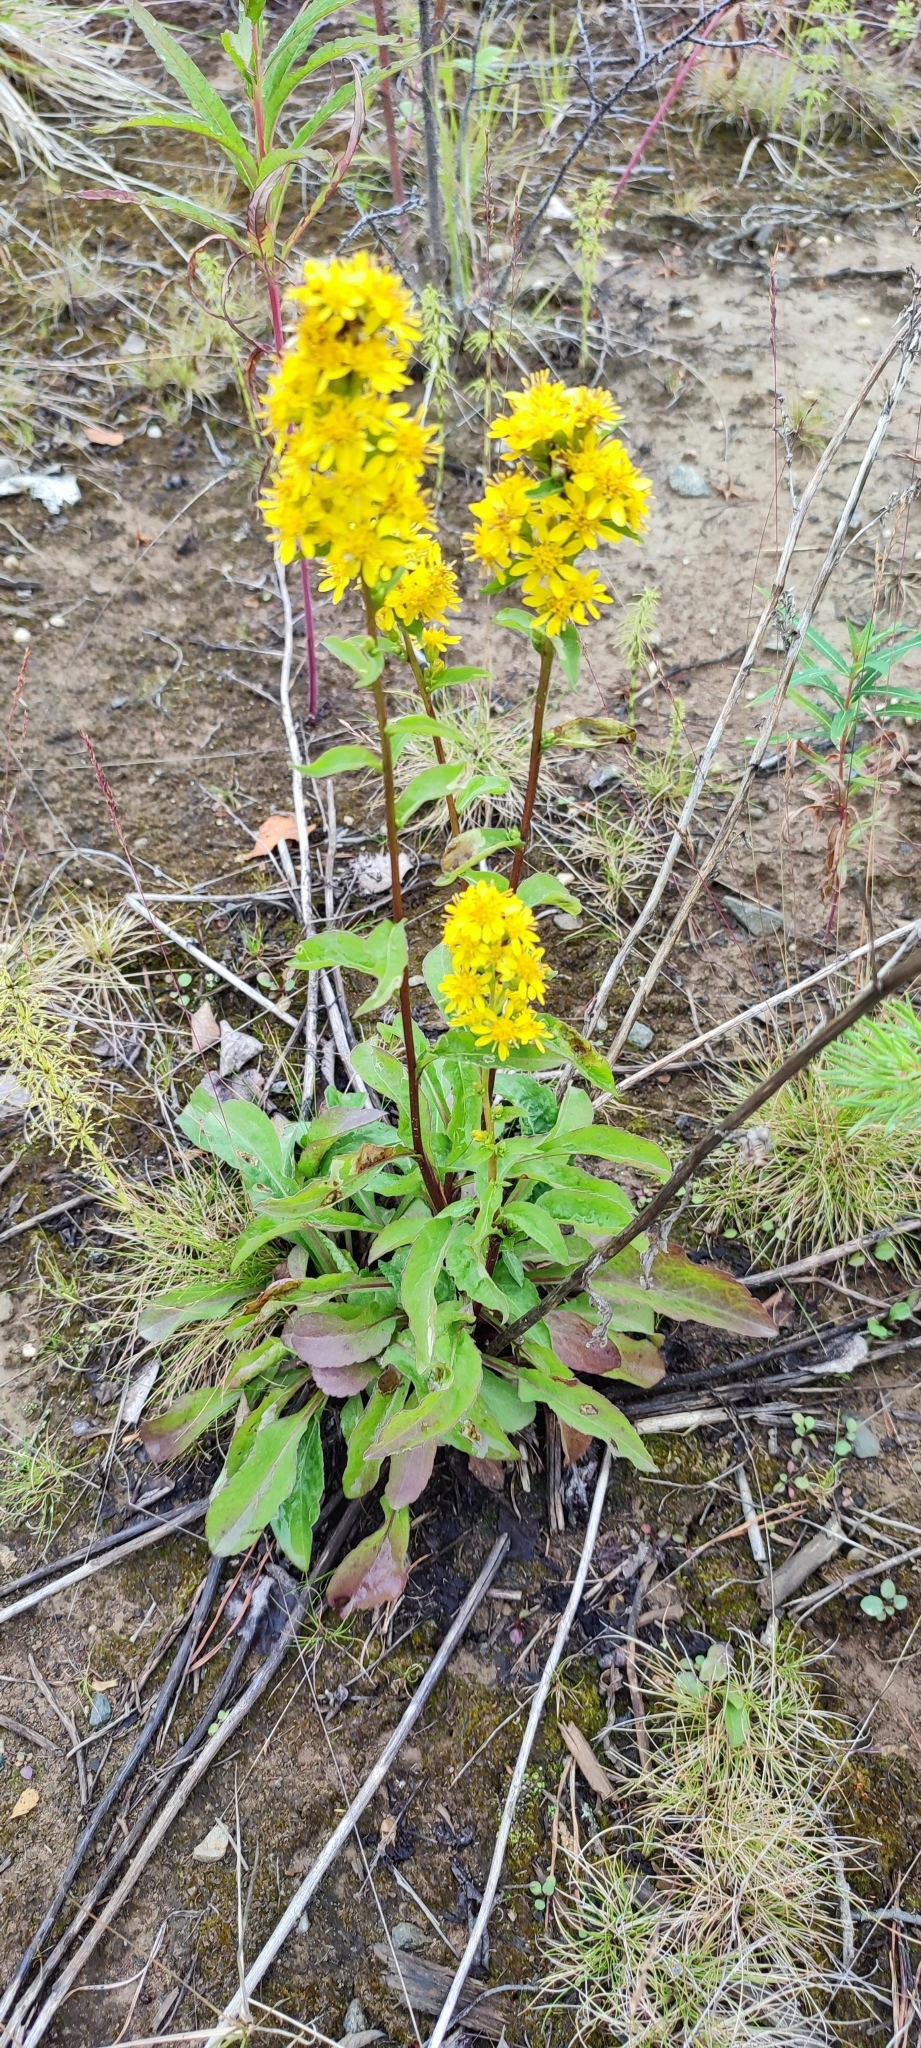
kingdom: Plantae
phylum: Tracheophyta
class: Magnoliopsida
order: Asterales
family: Asteraceae
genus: Solidago
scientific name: Solidago virgaurea
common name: Goldenrod
